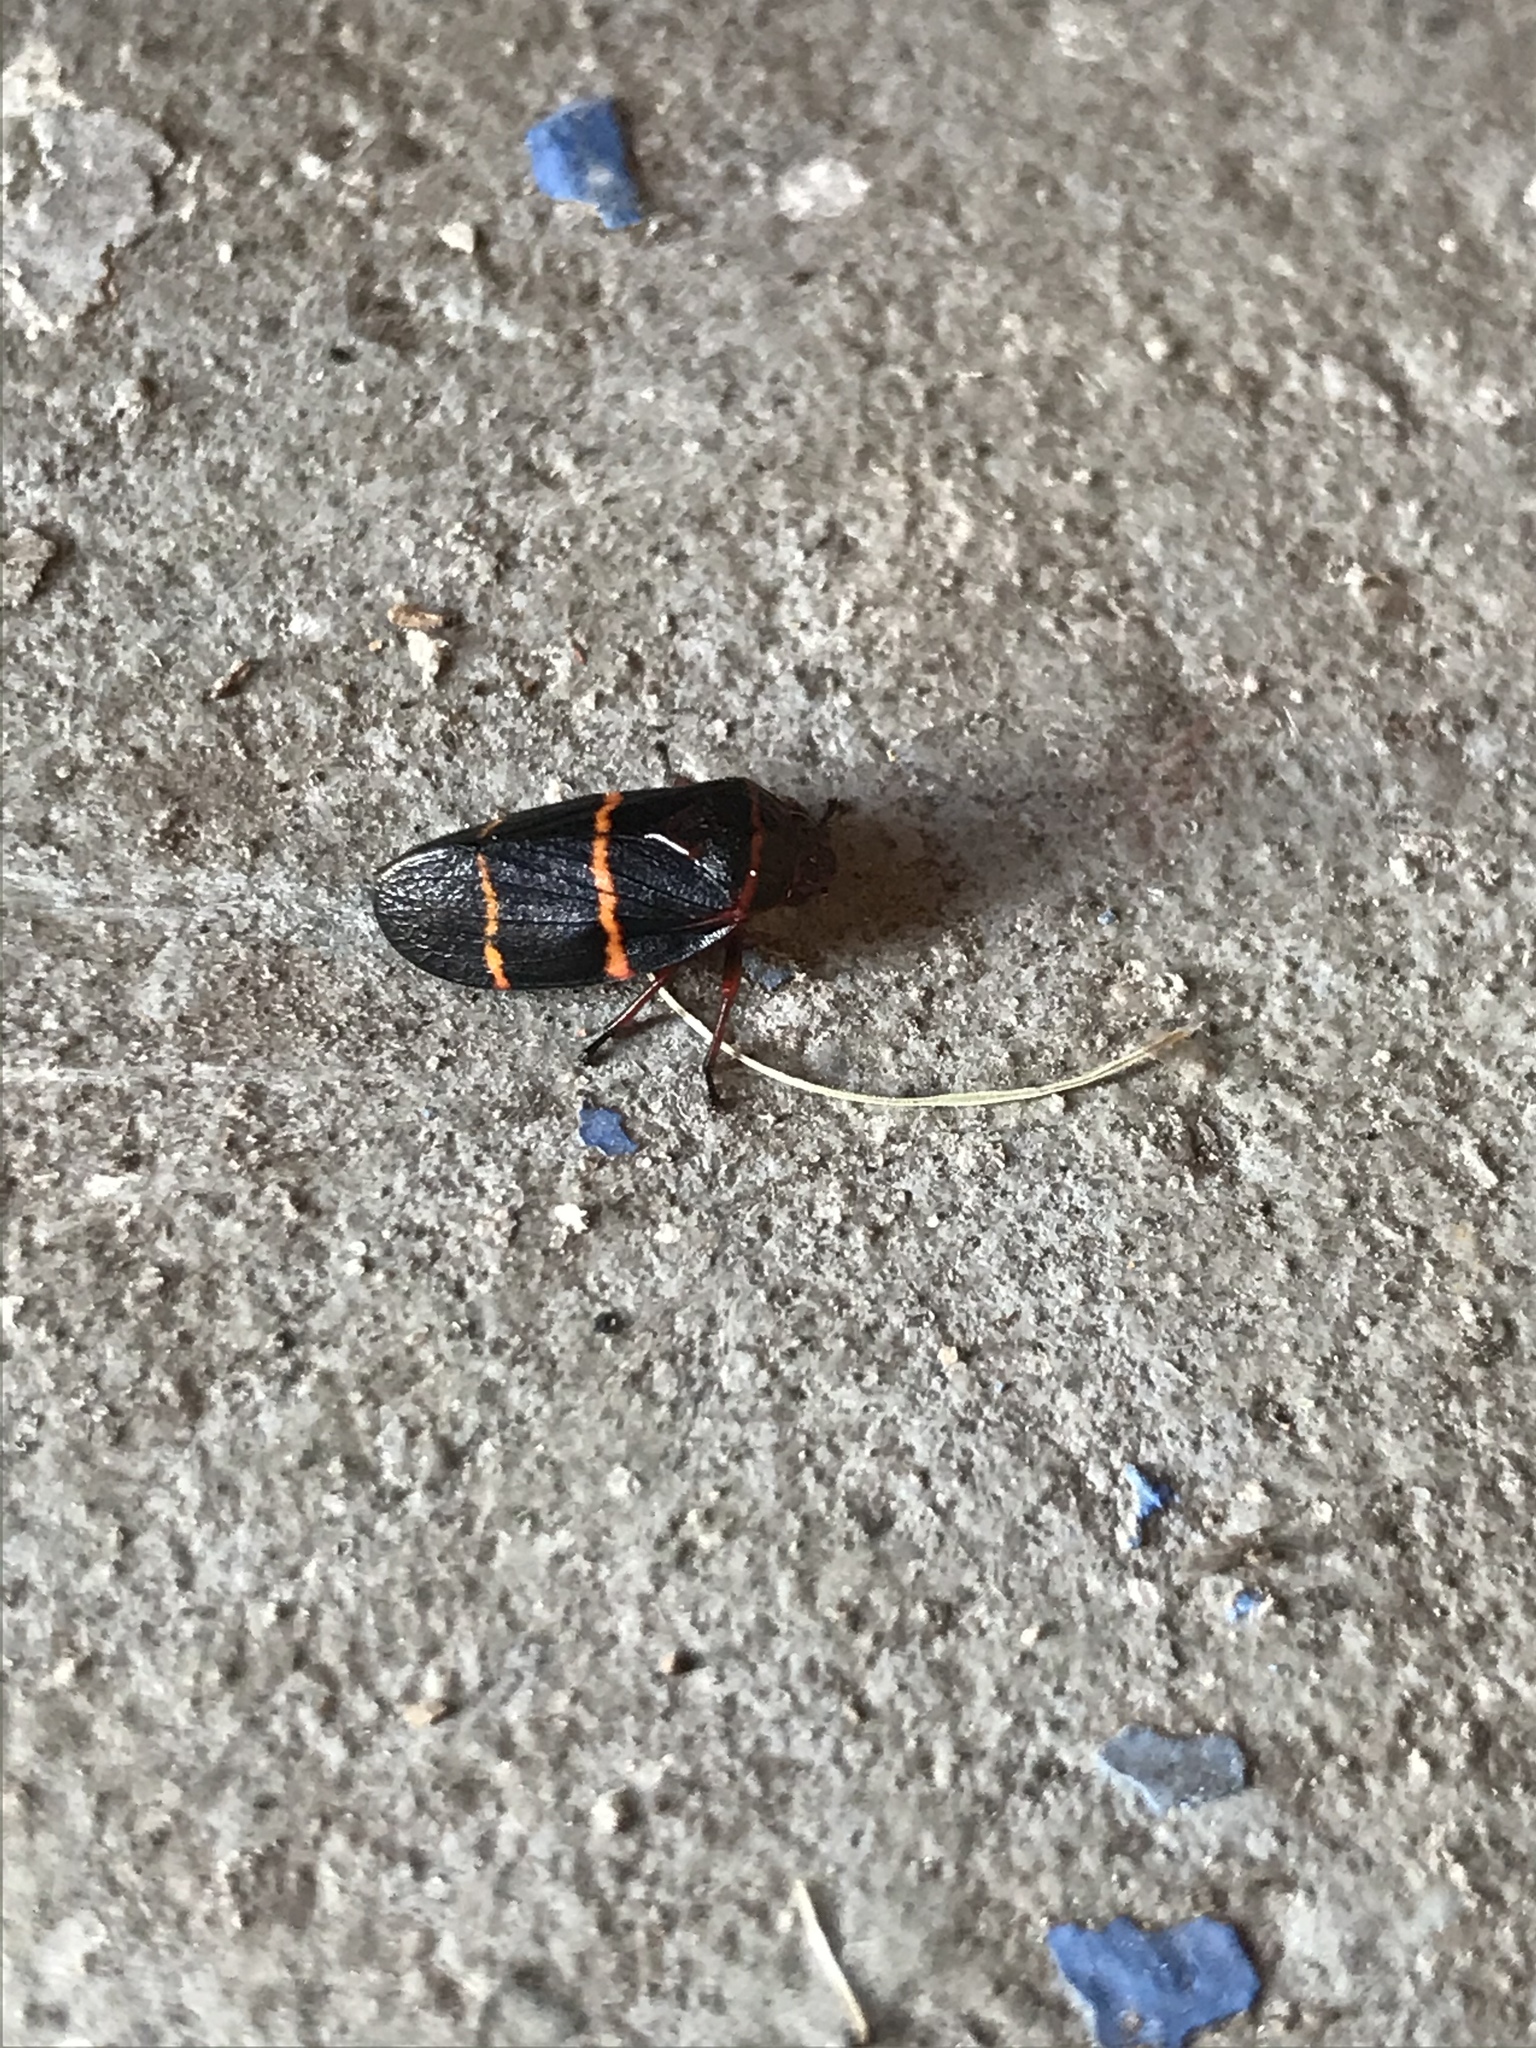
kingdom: Animalia
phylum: Arthropoda
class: Insecta
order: Hemiptera
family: Cercopidae
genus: Prosapia
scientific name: Prosapia bicincta
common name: Twolined spittlebug
